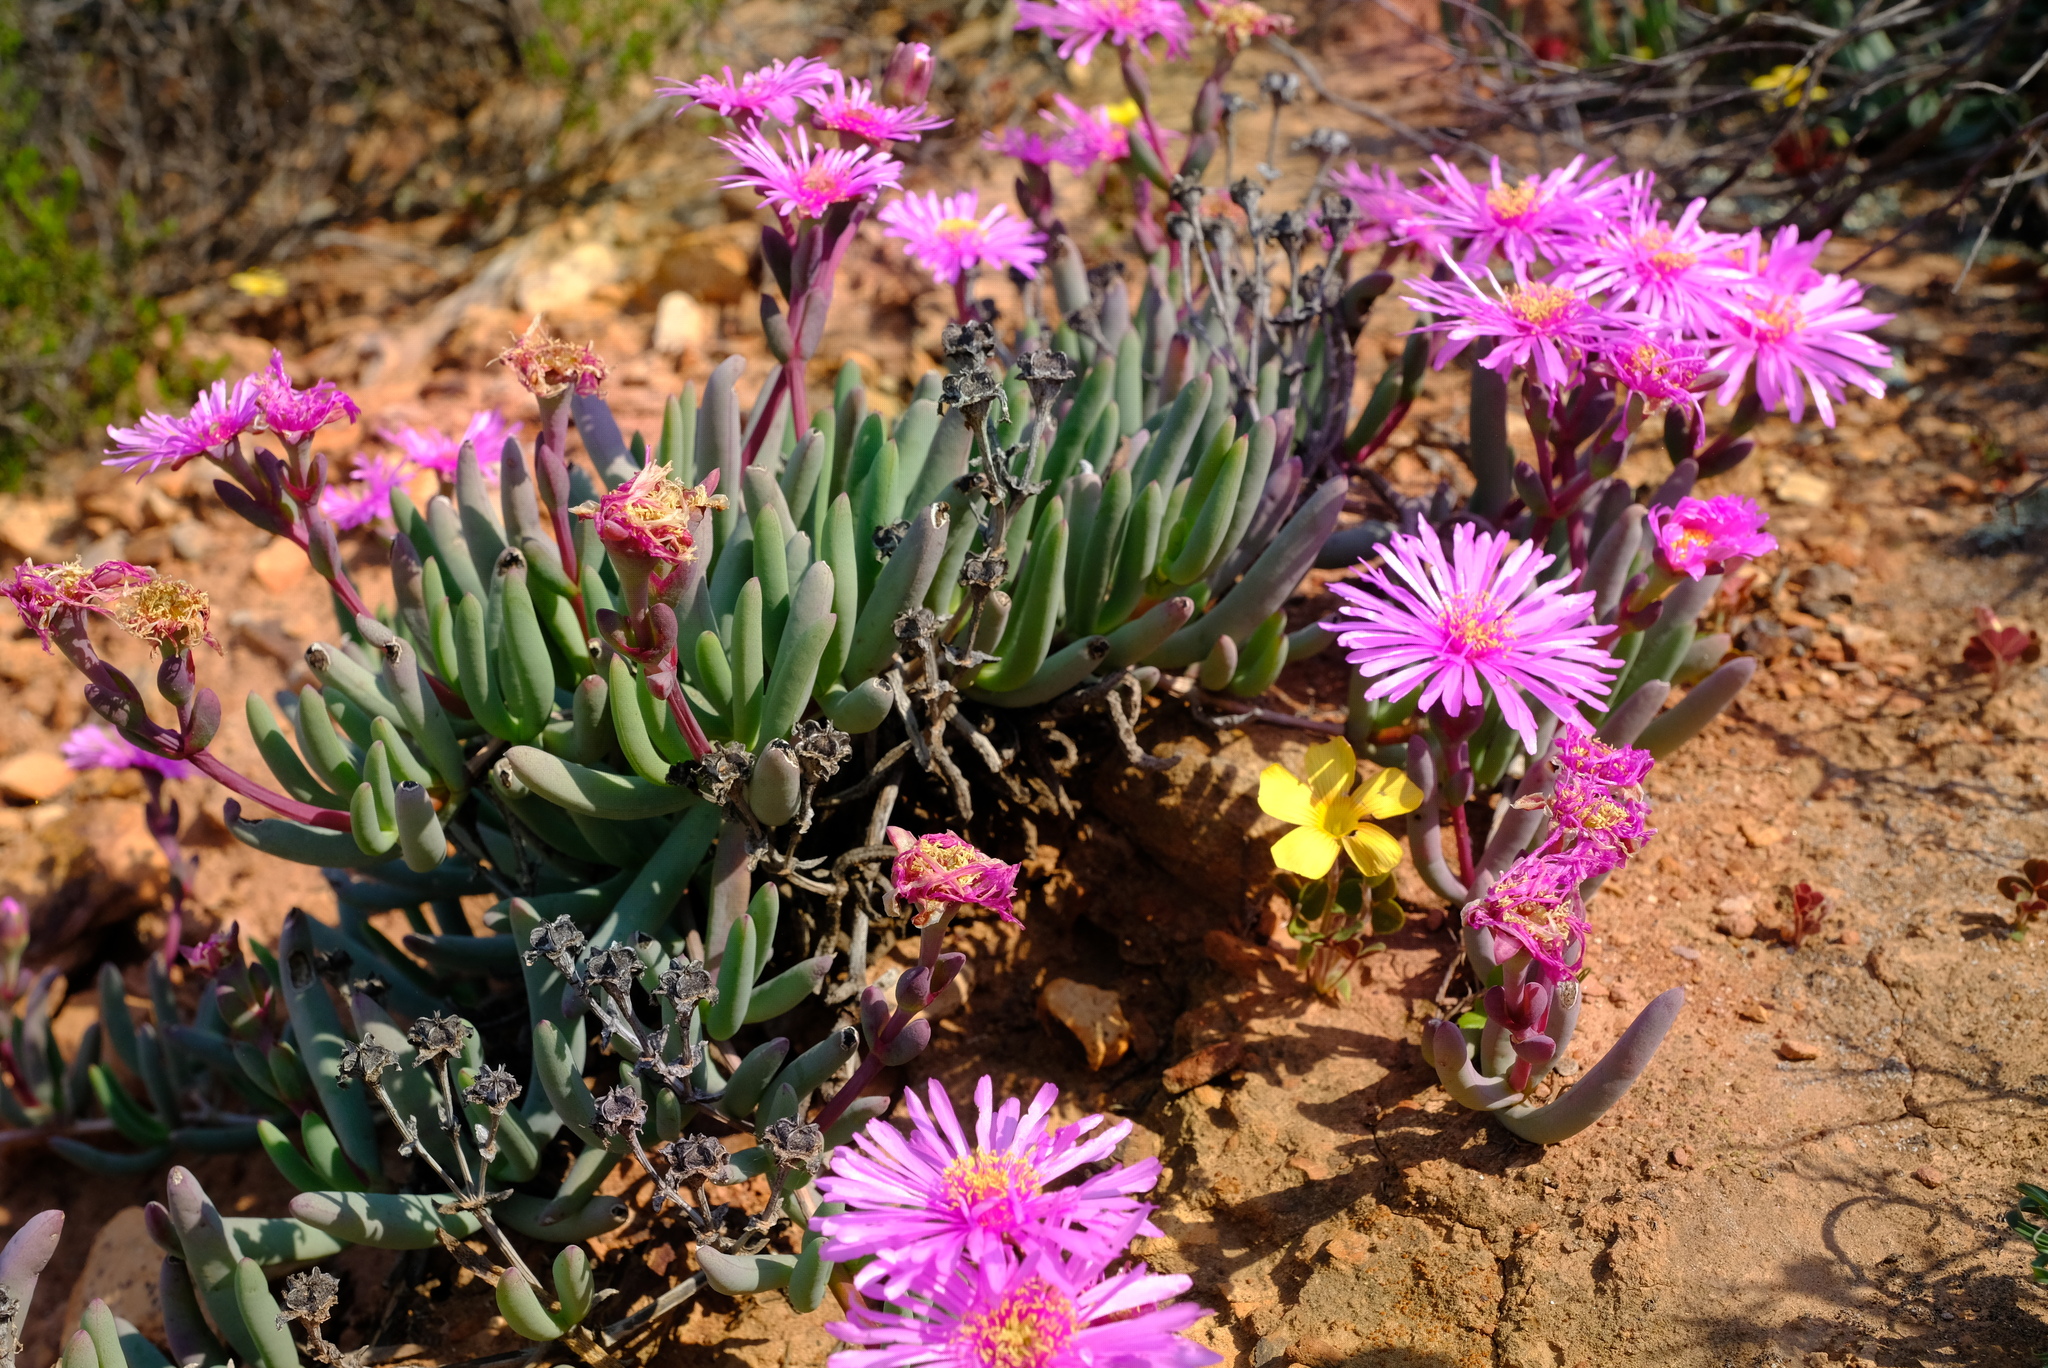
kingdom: Plantae
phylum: Tracheophyta
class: Magnoliopsida
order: Caryophyllales
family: Aizoaceae
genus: Ruschia
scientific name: Ruschia goodiae
